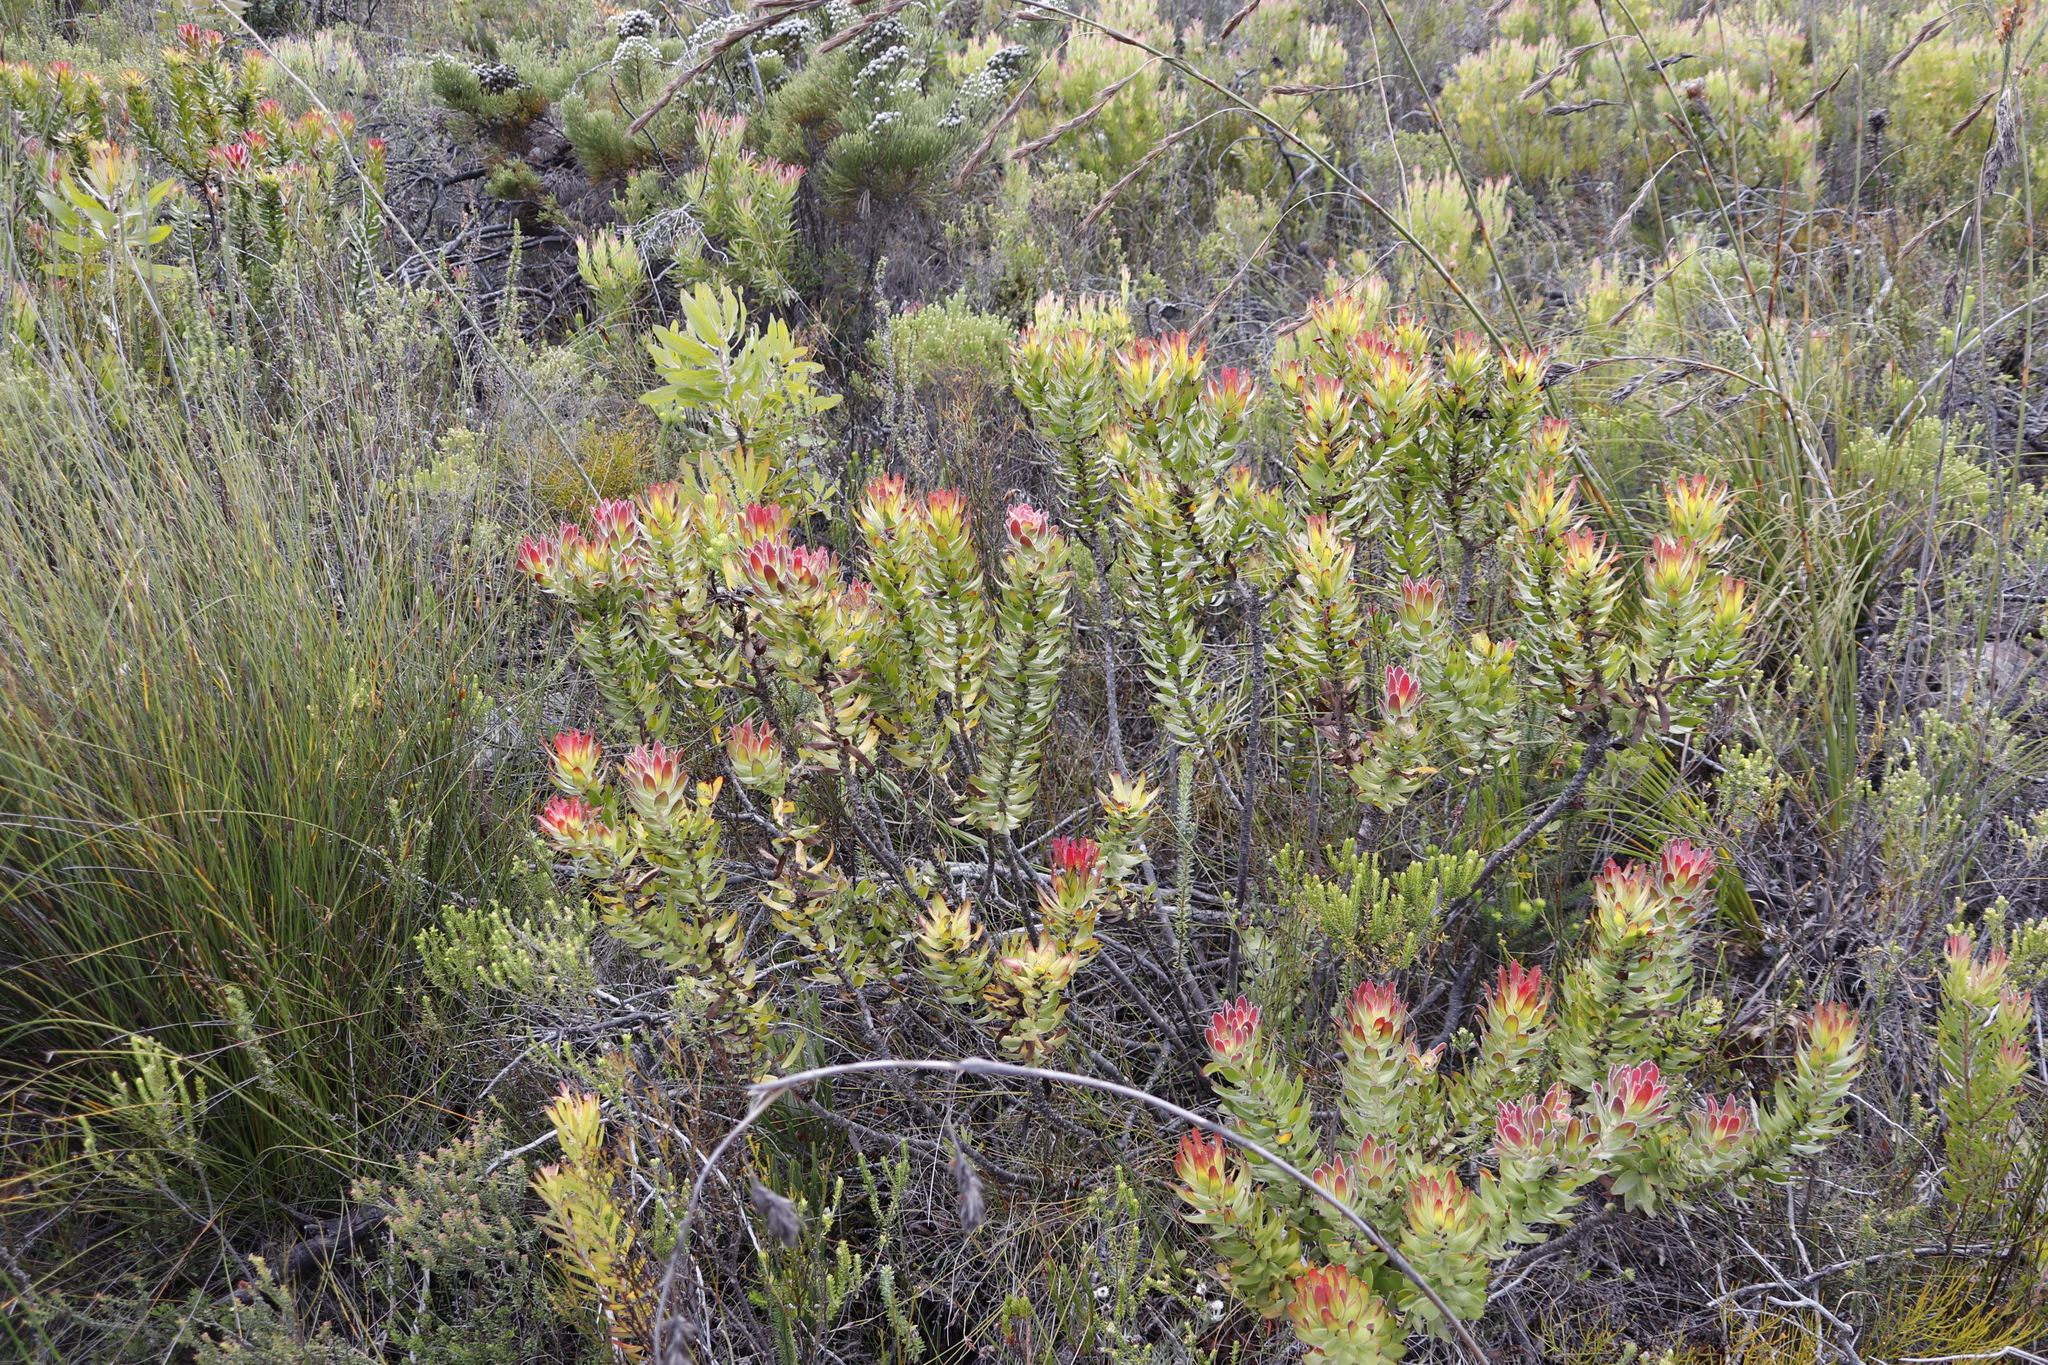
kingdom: Plantae
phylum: Tracheophyta
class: Magnoliopsida
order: Proteales
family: Proteaceae
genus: Mimetes
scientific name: Mimetes cucullatus
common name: Common pagoda
